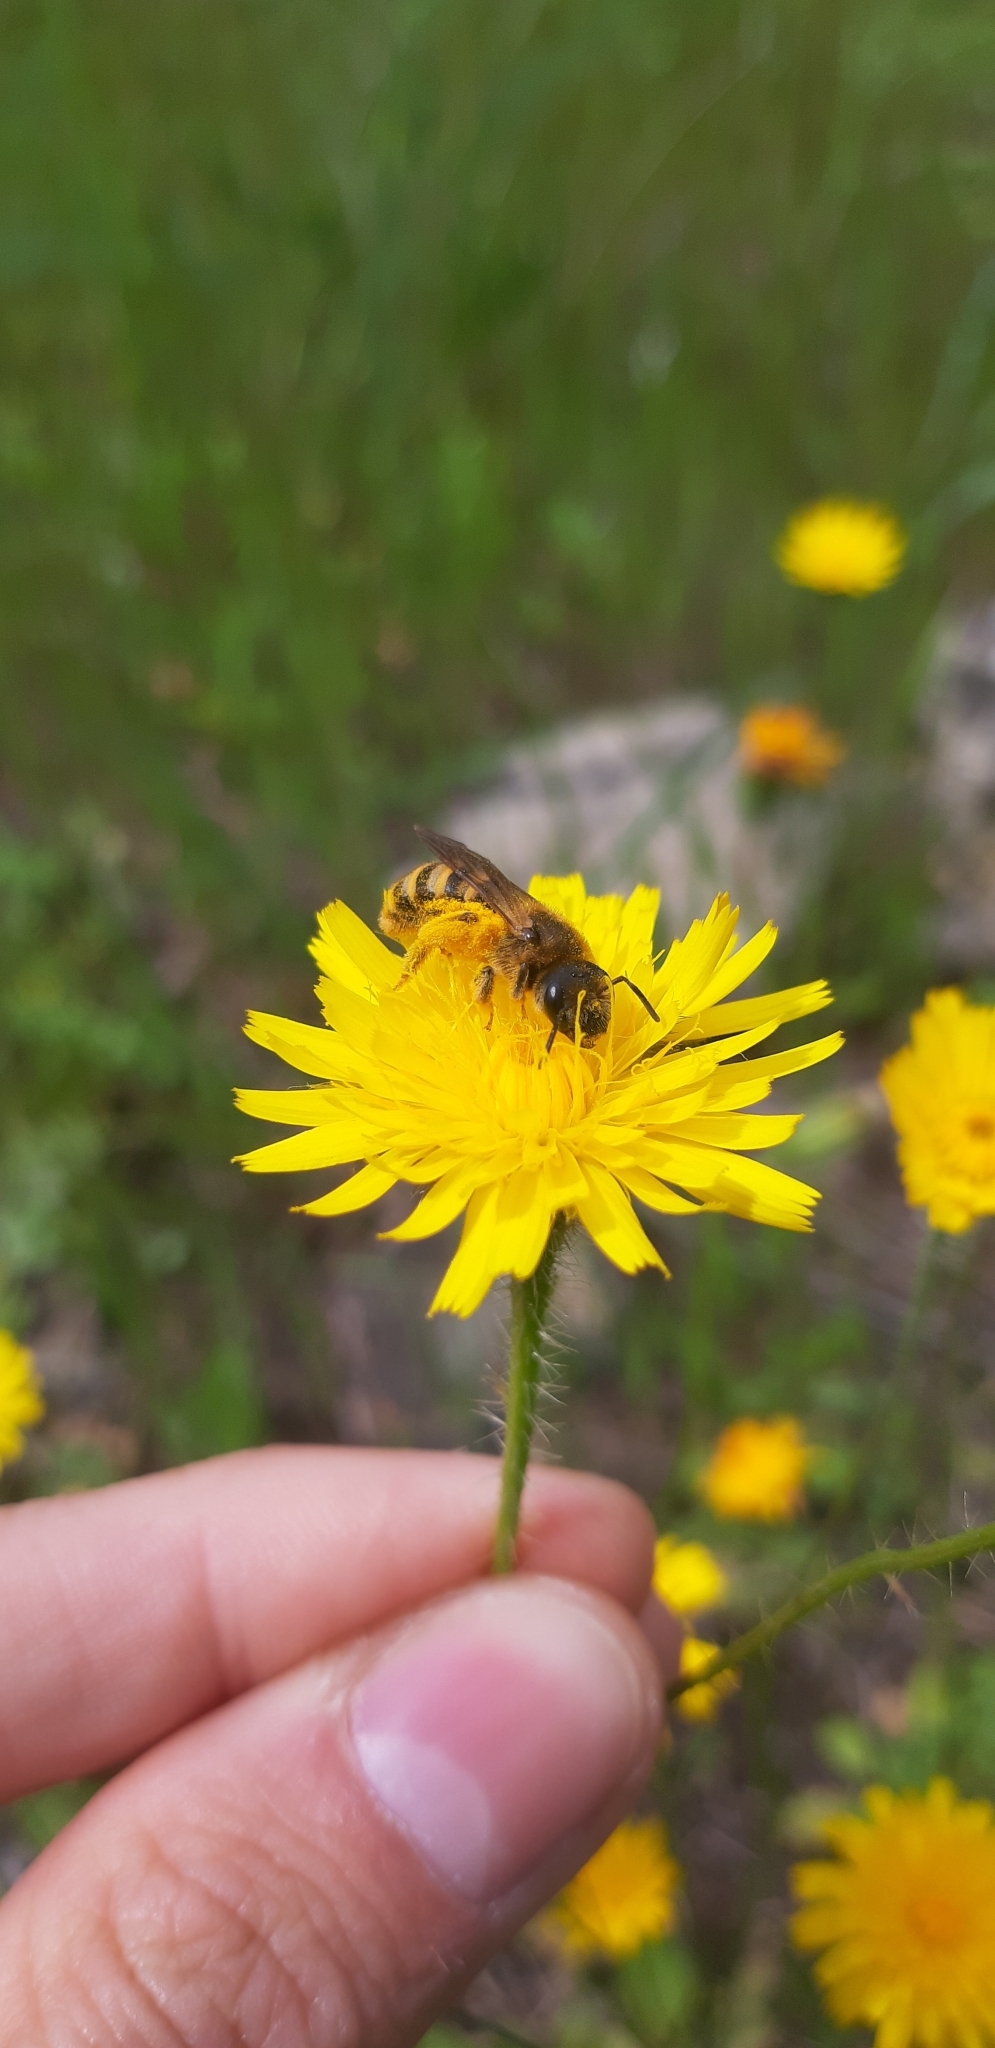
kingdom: Animalia
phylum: Arthropoda
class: Insecta
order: Hymenoptera
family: Halictidae
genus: Halictus
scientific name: Halictus scabiosae
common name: Great banded furrow bee
